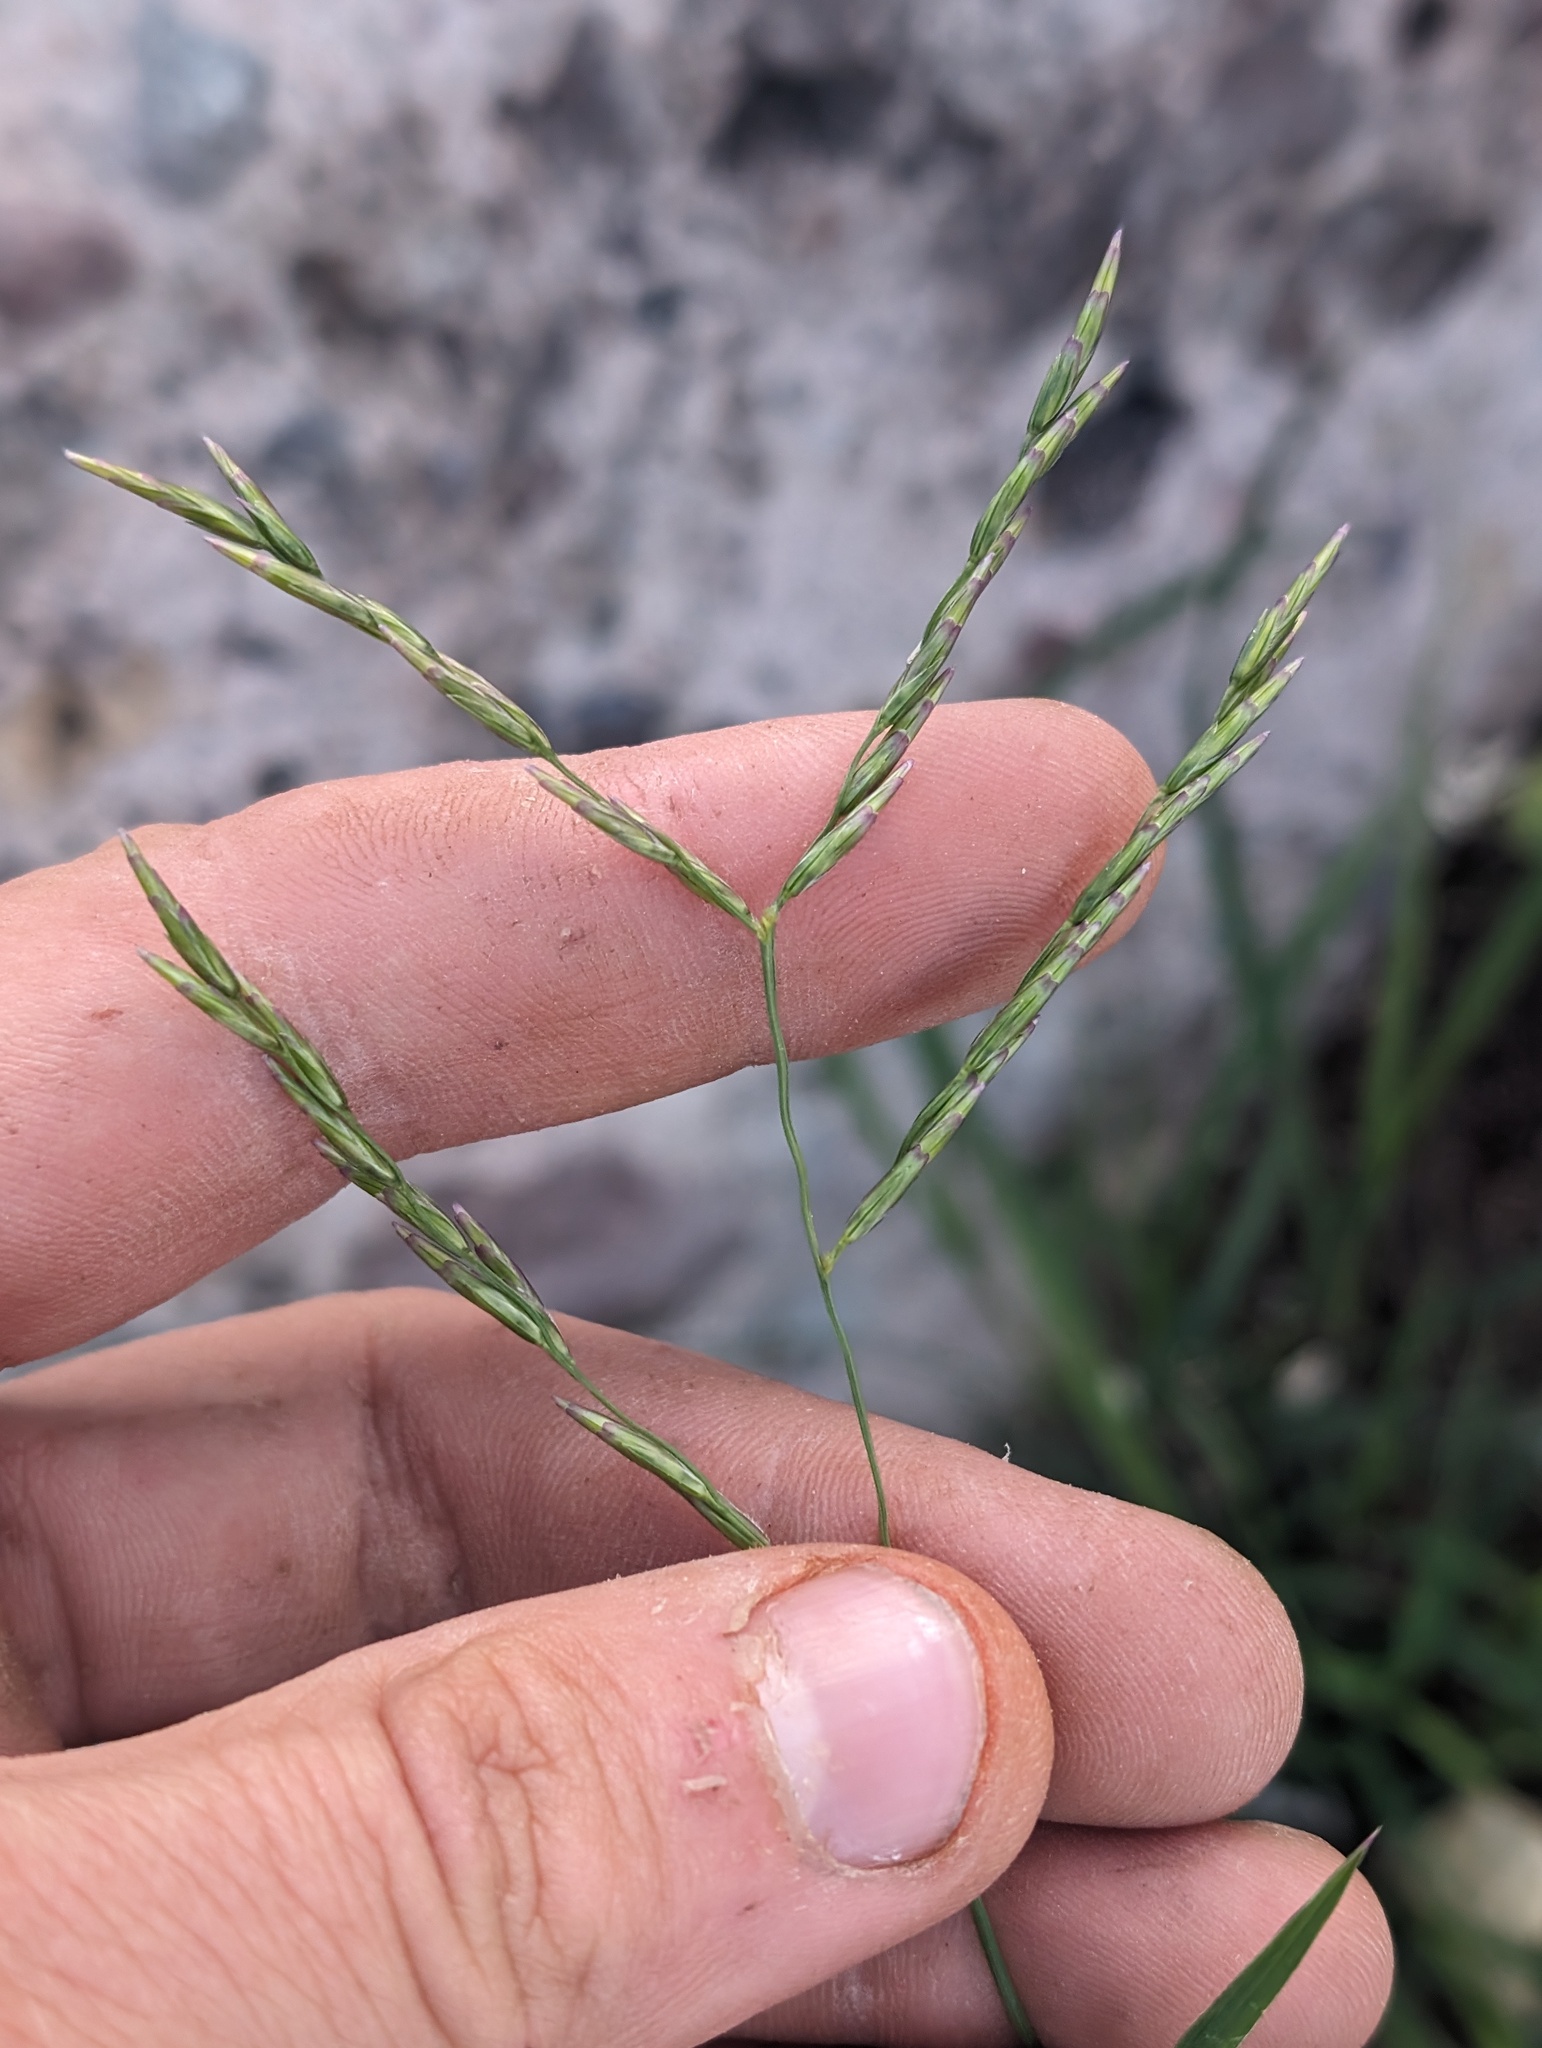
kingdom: Plantae
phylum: Tracheophyta
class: Liliopsida
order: Poales
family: Poaceae
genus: Disakisperma
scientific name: Disakisperma dubium
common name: Green sprangletop
